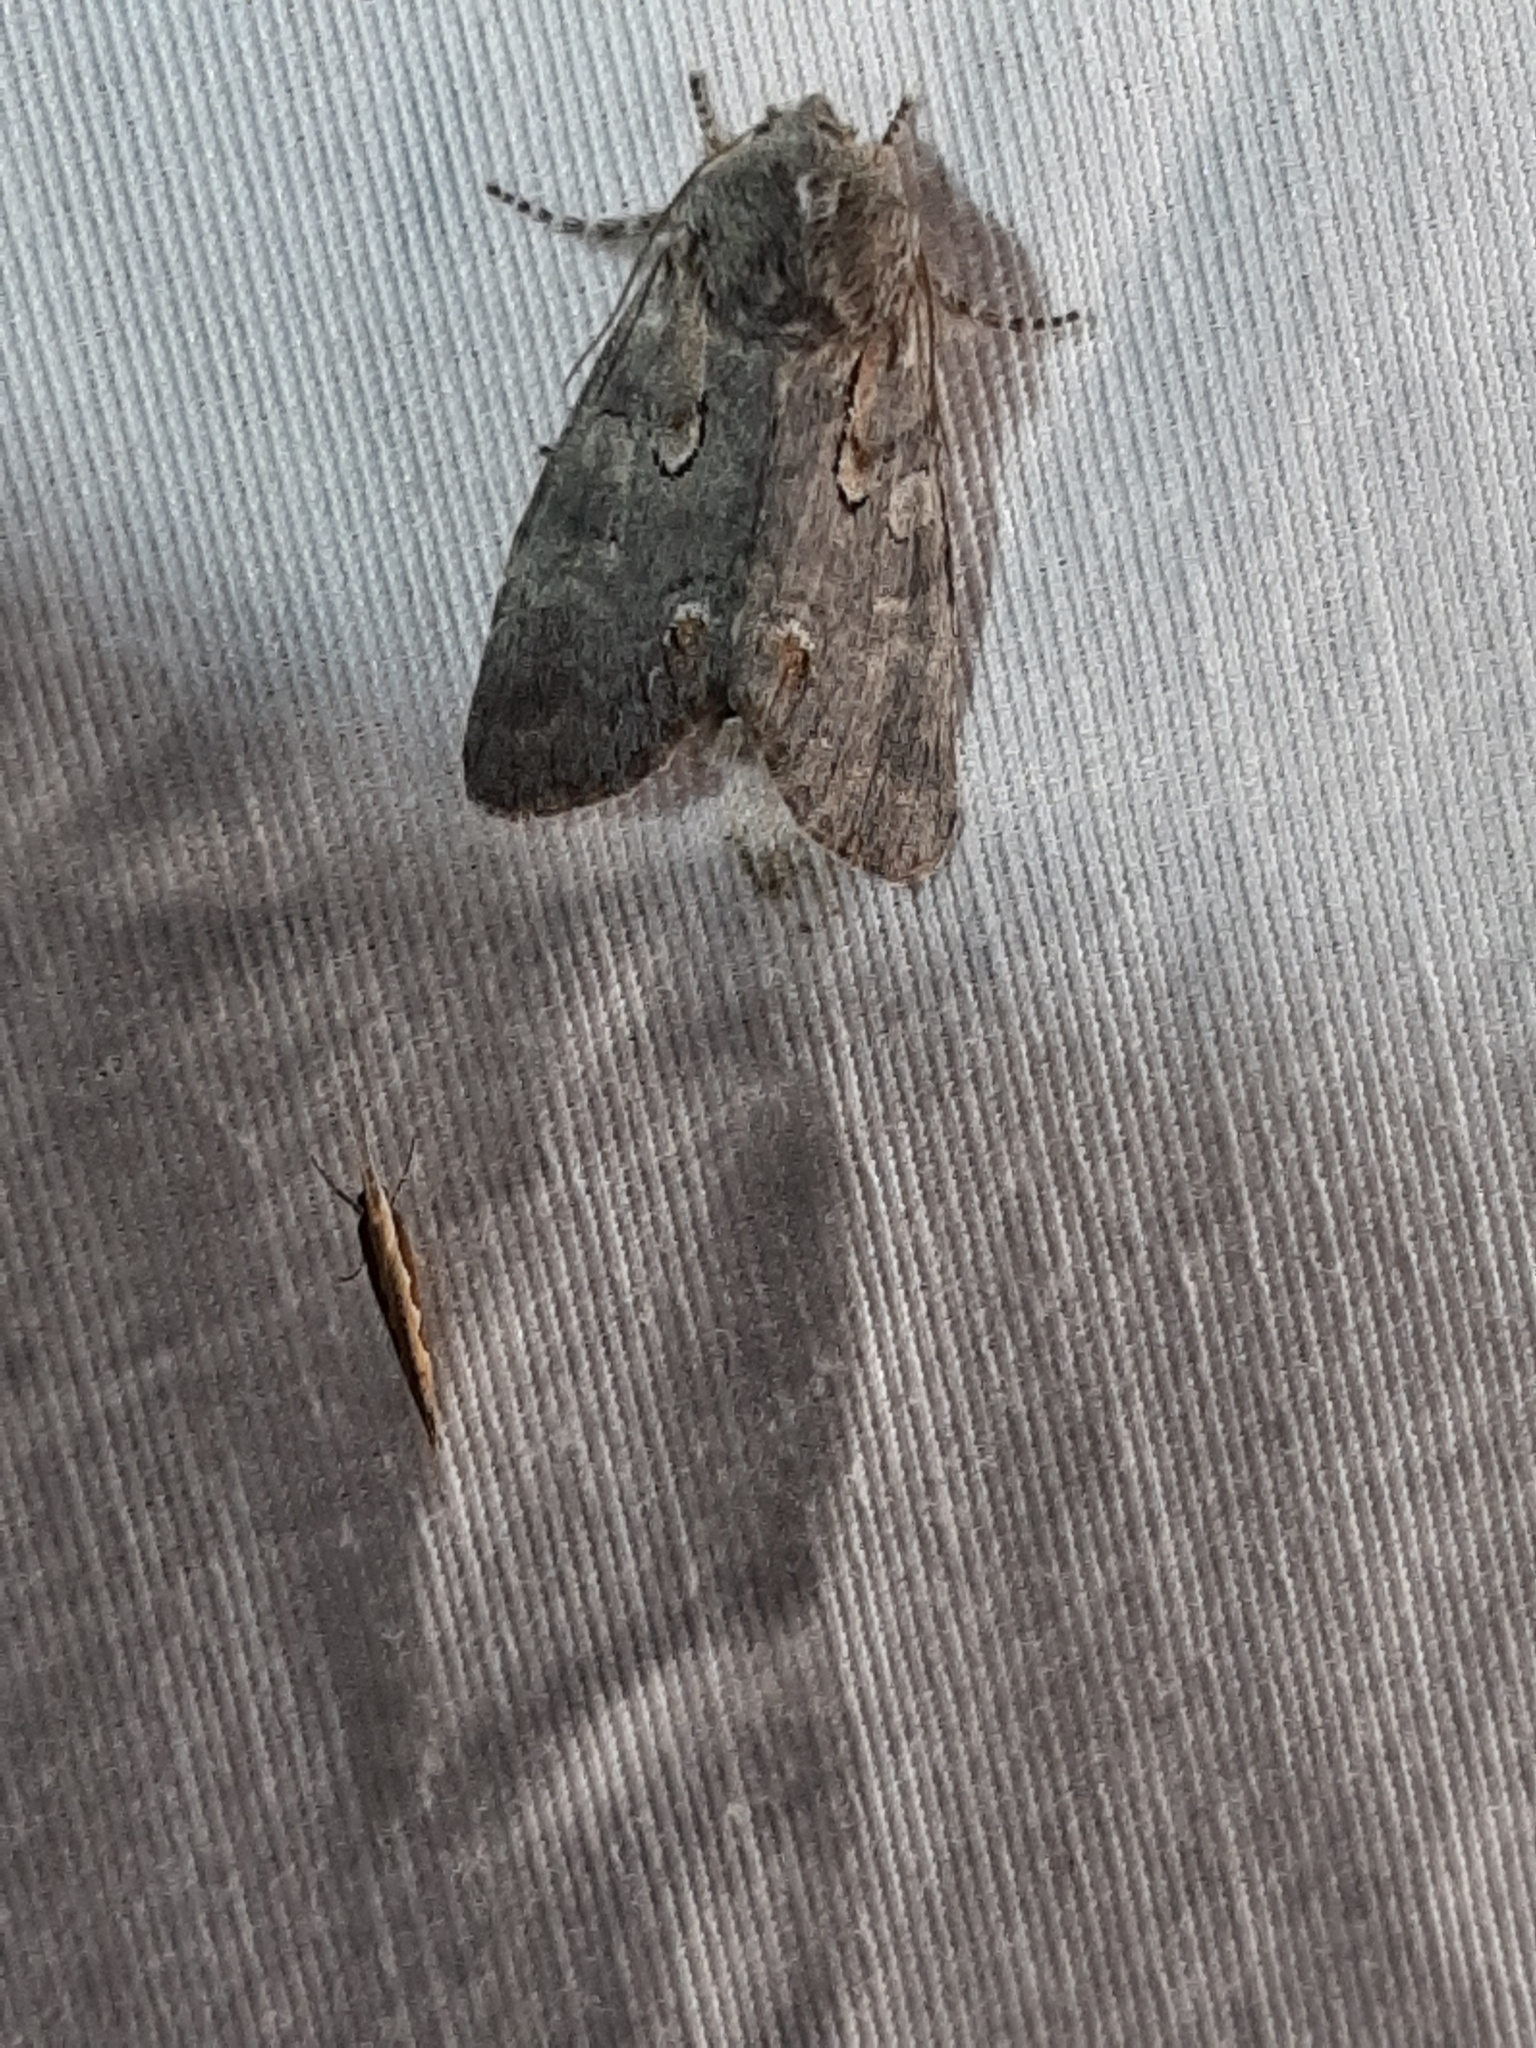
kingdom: Animalia
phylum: Arthropoda
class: Insecta
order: Lepidoptera
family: Noctuidae
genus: Psaphida
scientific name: Psaphida electilis
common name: Chosen sallow
